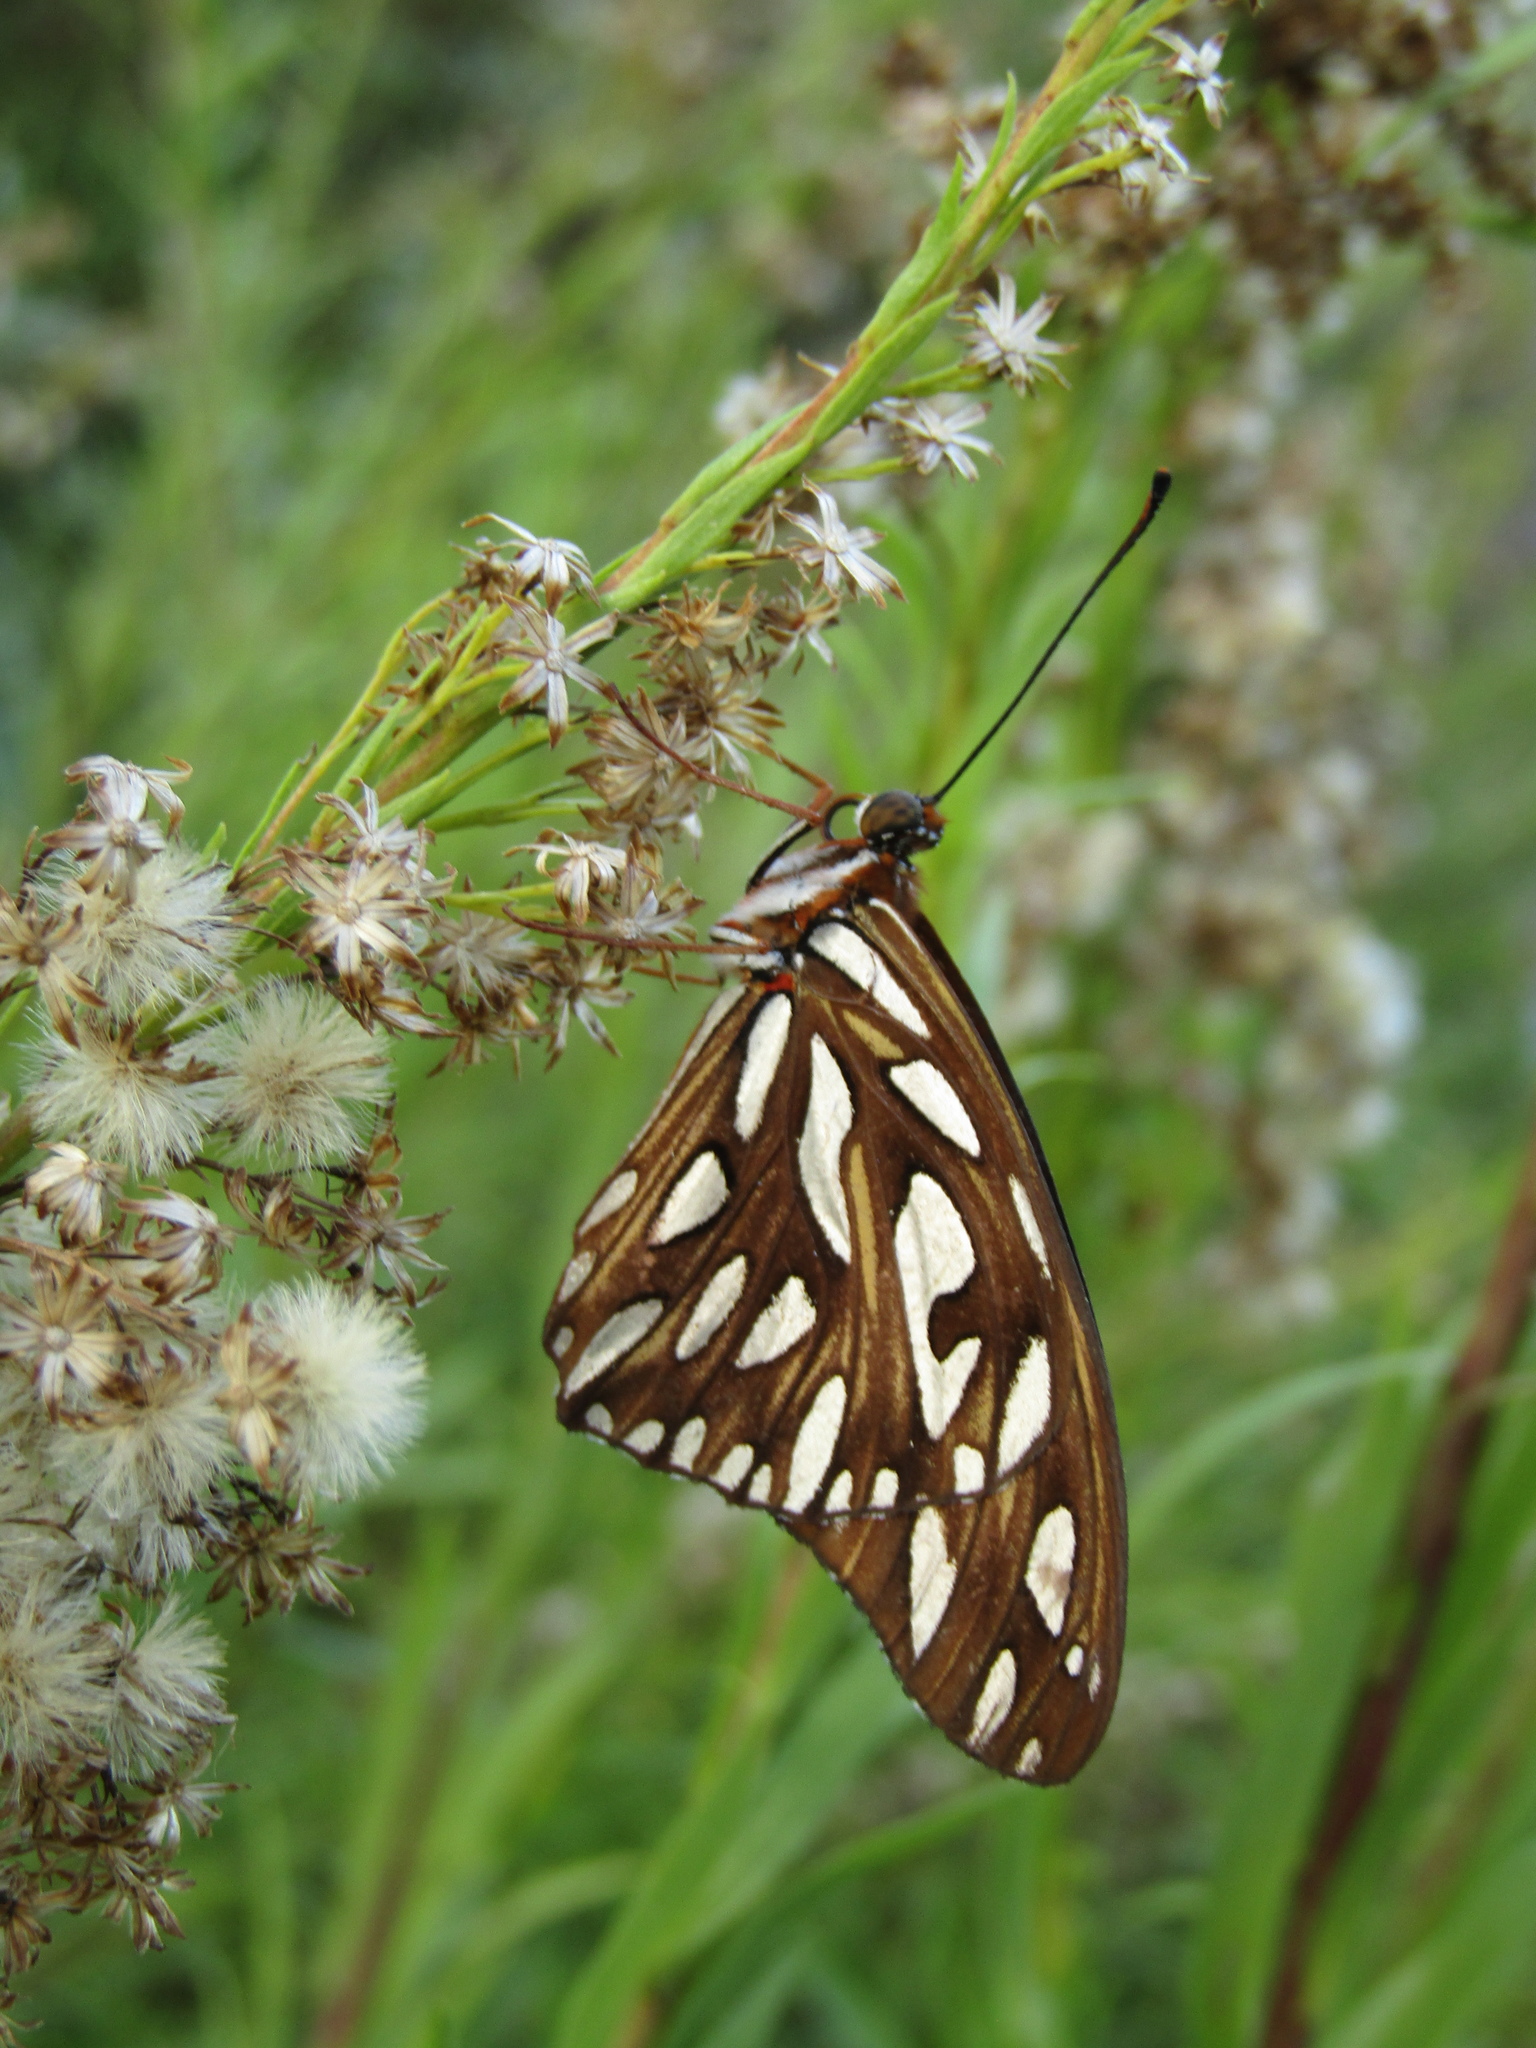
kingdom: Animalia
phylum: Arthropoda
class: Insecta
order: Lepidoptera
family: Nymphalidae
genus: Dione
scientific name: Dione vanillae
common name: Gulf fritillary
